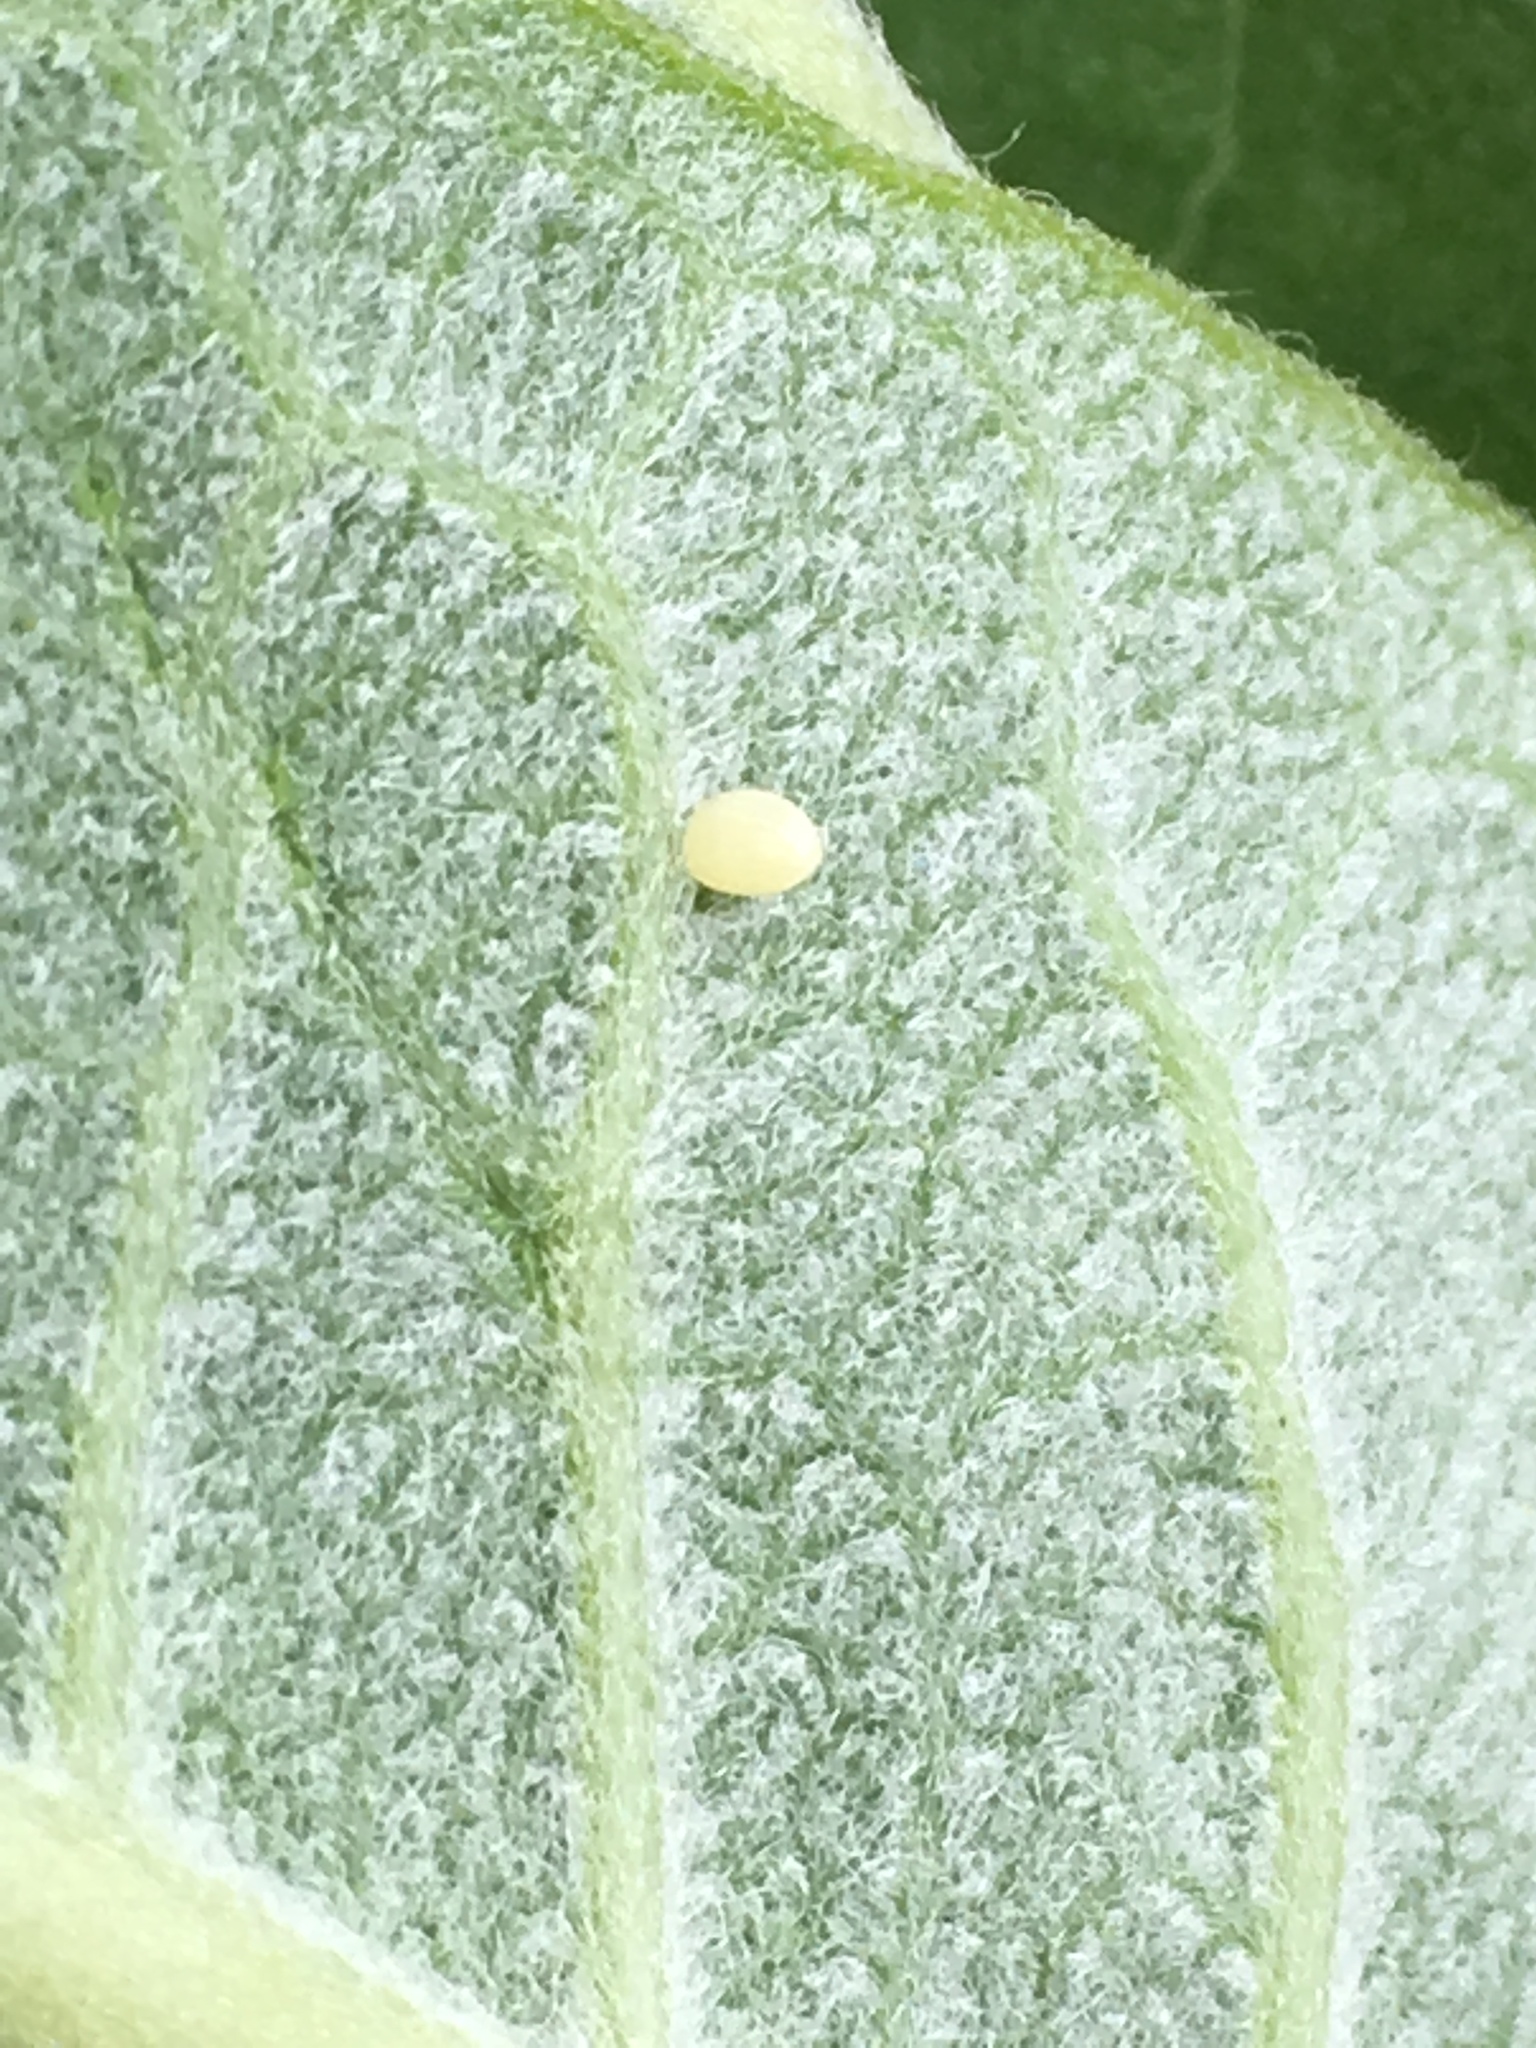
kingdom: Animalia
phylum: Arthropoda
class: Insecta
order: Lepidoptera
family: Nymphalidae
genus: Danaus
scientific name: Danaus plexippus
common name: Monarch
